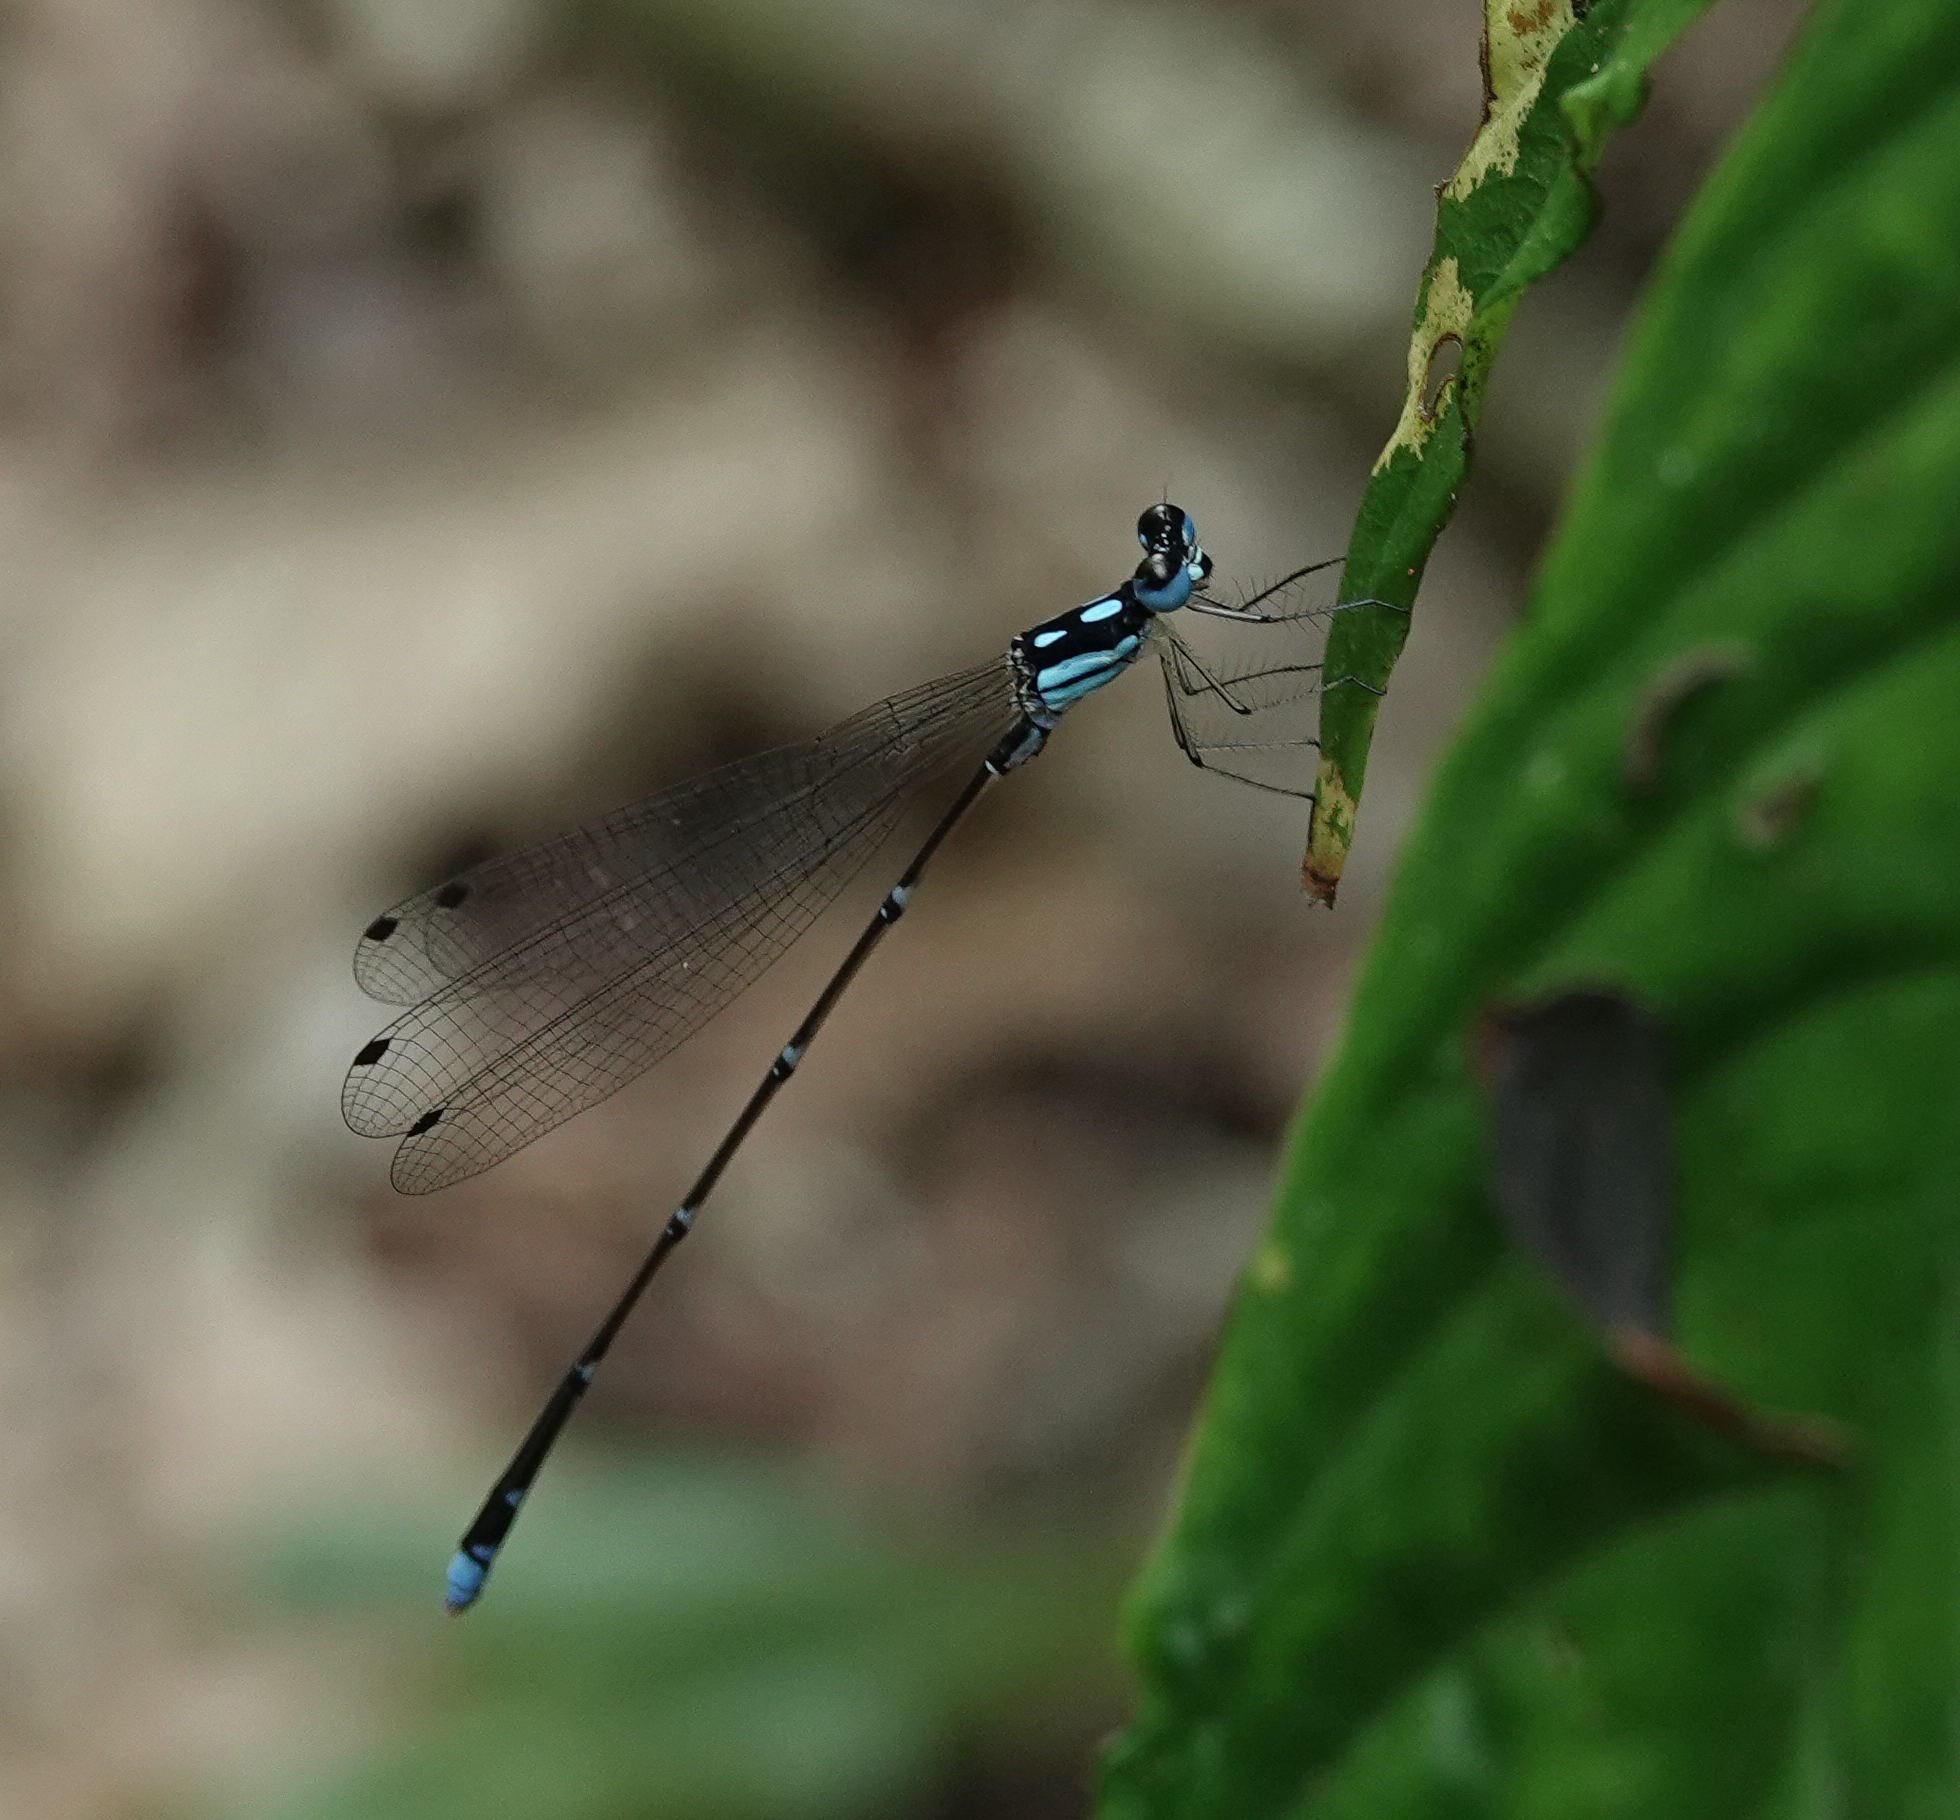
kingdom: Animalia
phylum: Arthropoda
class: Insecta
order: Odonata
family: Platycnemididae
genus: Coeliccia
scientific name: Coeliccia didyma
